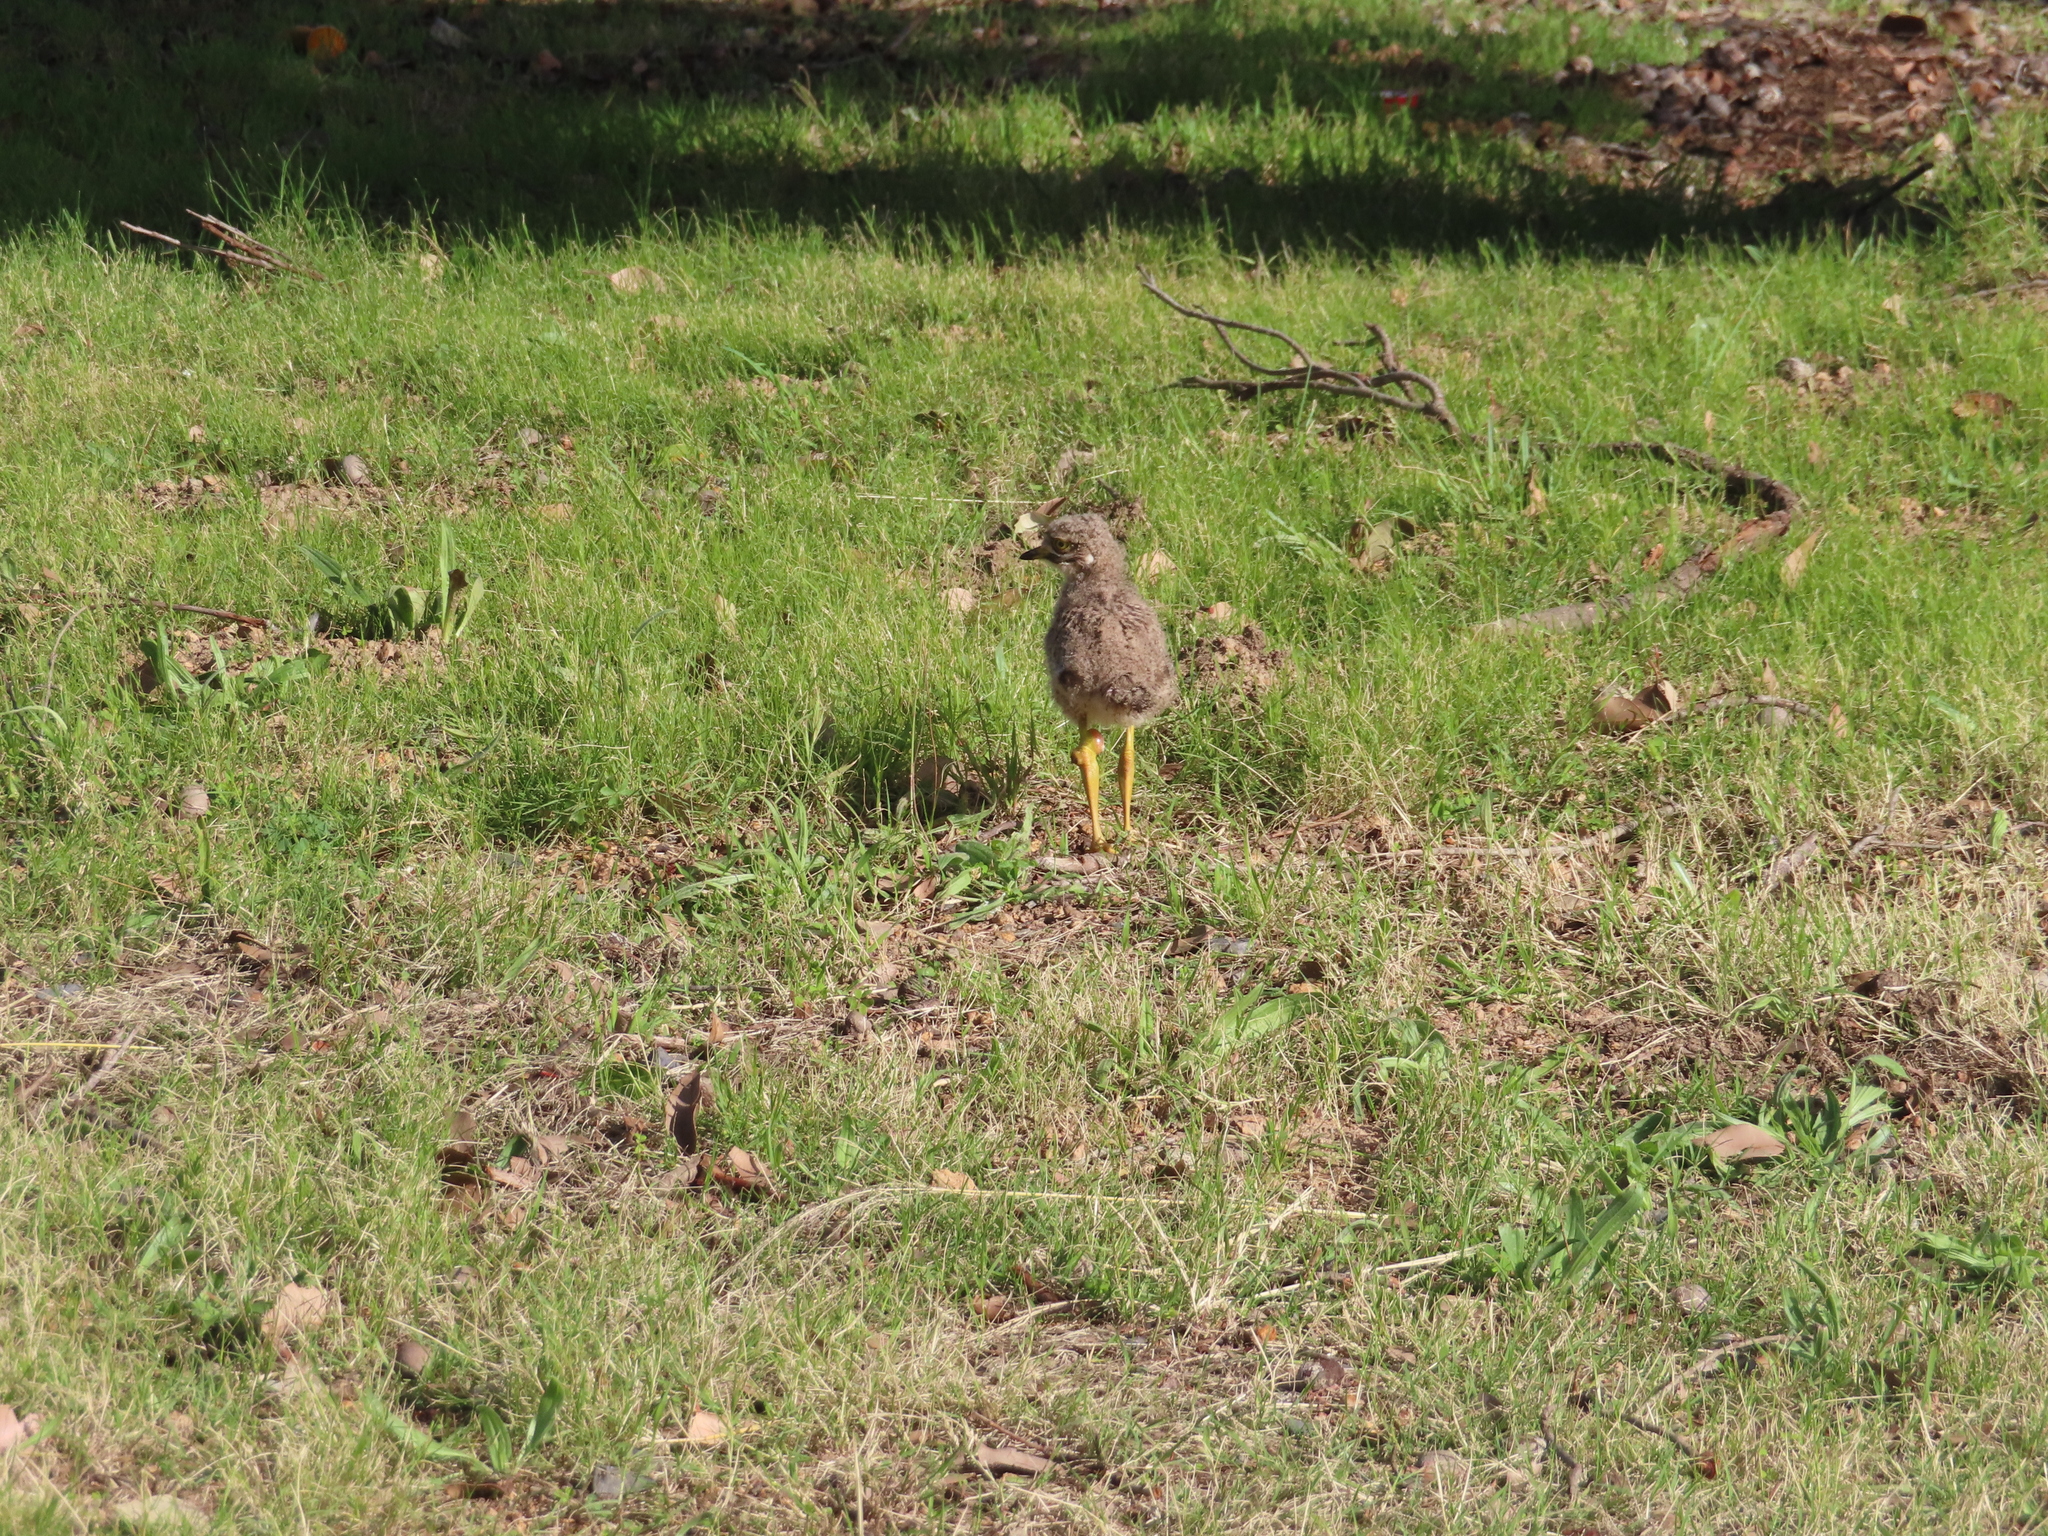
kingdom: Animalia
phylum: Chordata
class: Aves
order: Charadriiformes
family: Burhinidae
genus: Burhinus
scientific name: Burhinus capensis
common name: Spotted thick-knee
